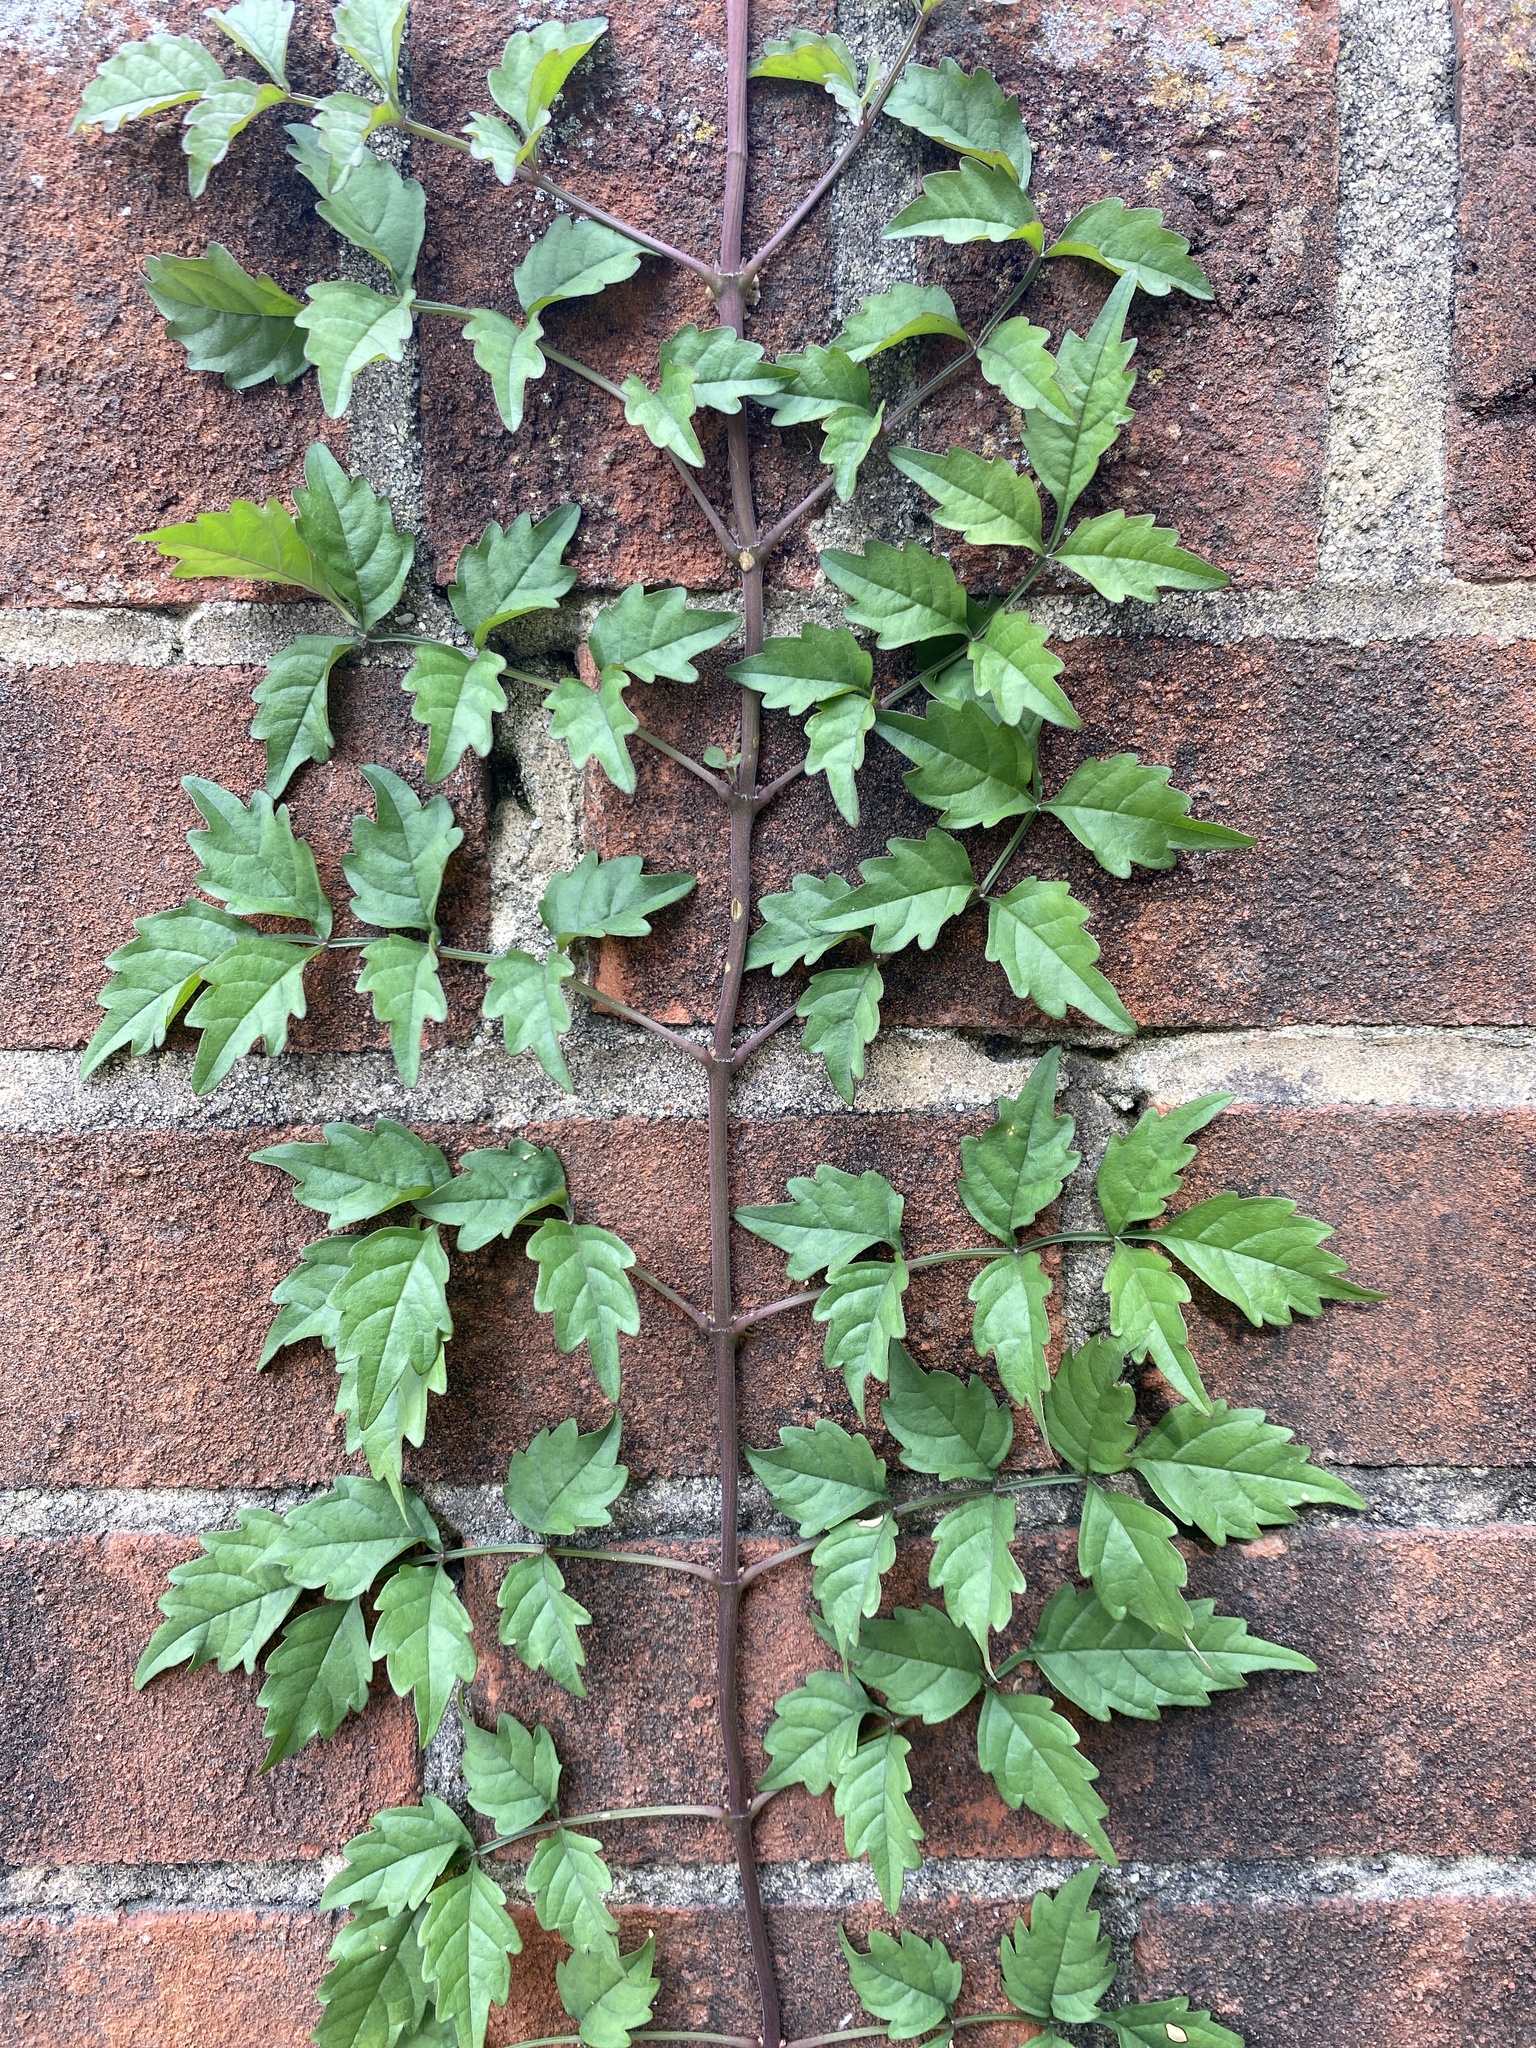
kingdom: Plantae
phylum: Tracheophyta
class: Magnoliopsida
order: Lamiales
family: Bignoniaceae
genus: Campsis
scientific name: Campsis radicans
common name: Trumpet-creeper
